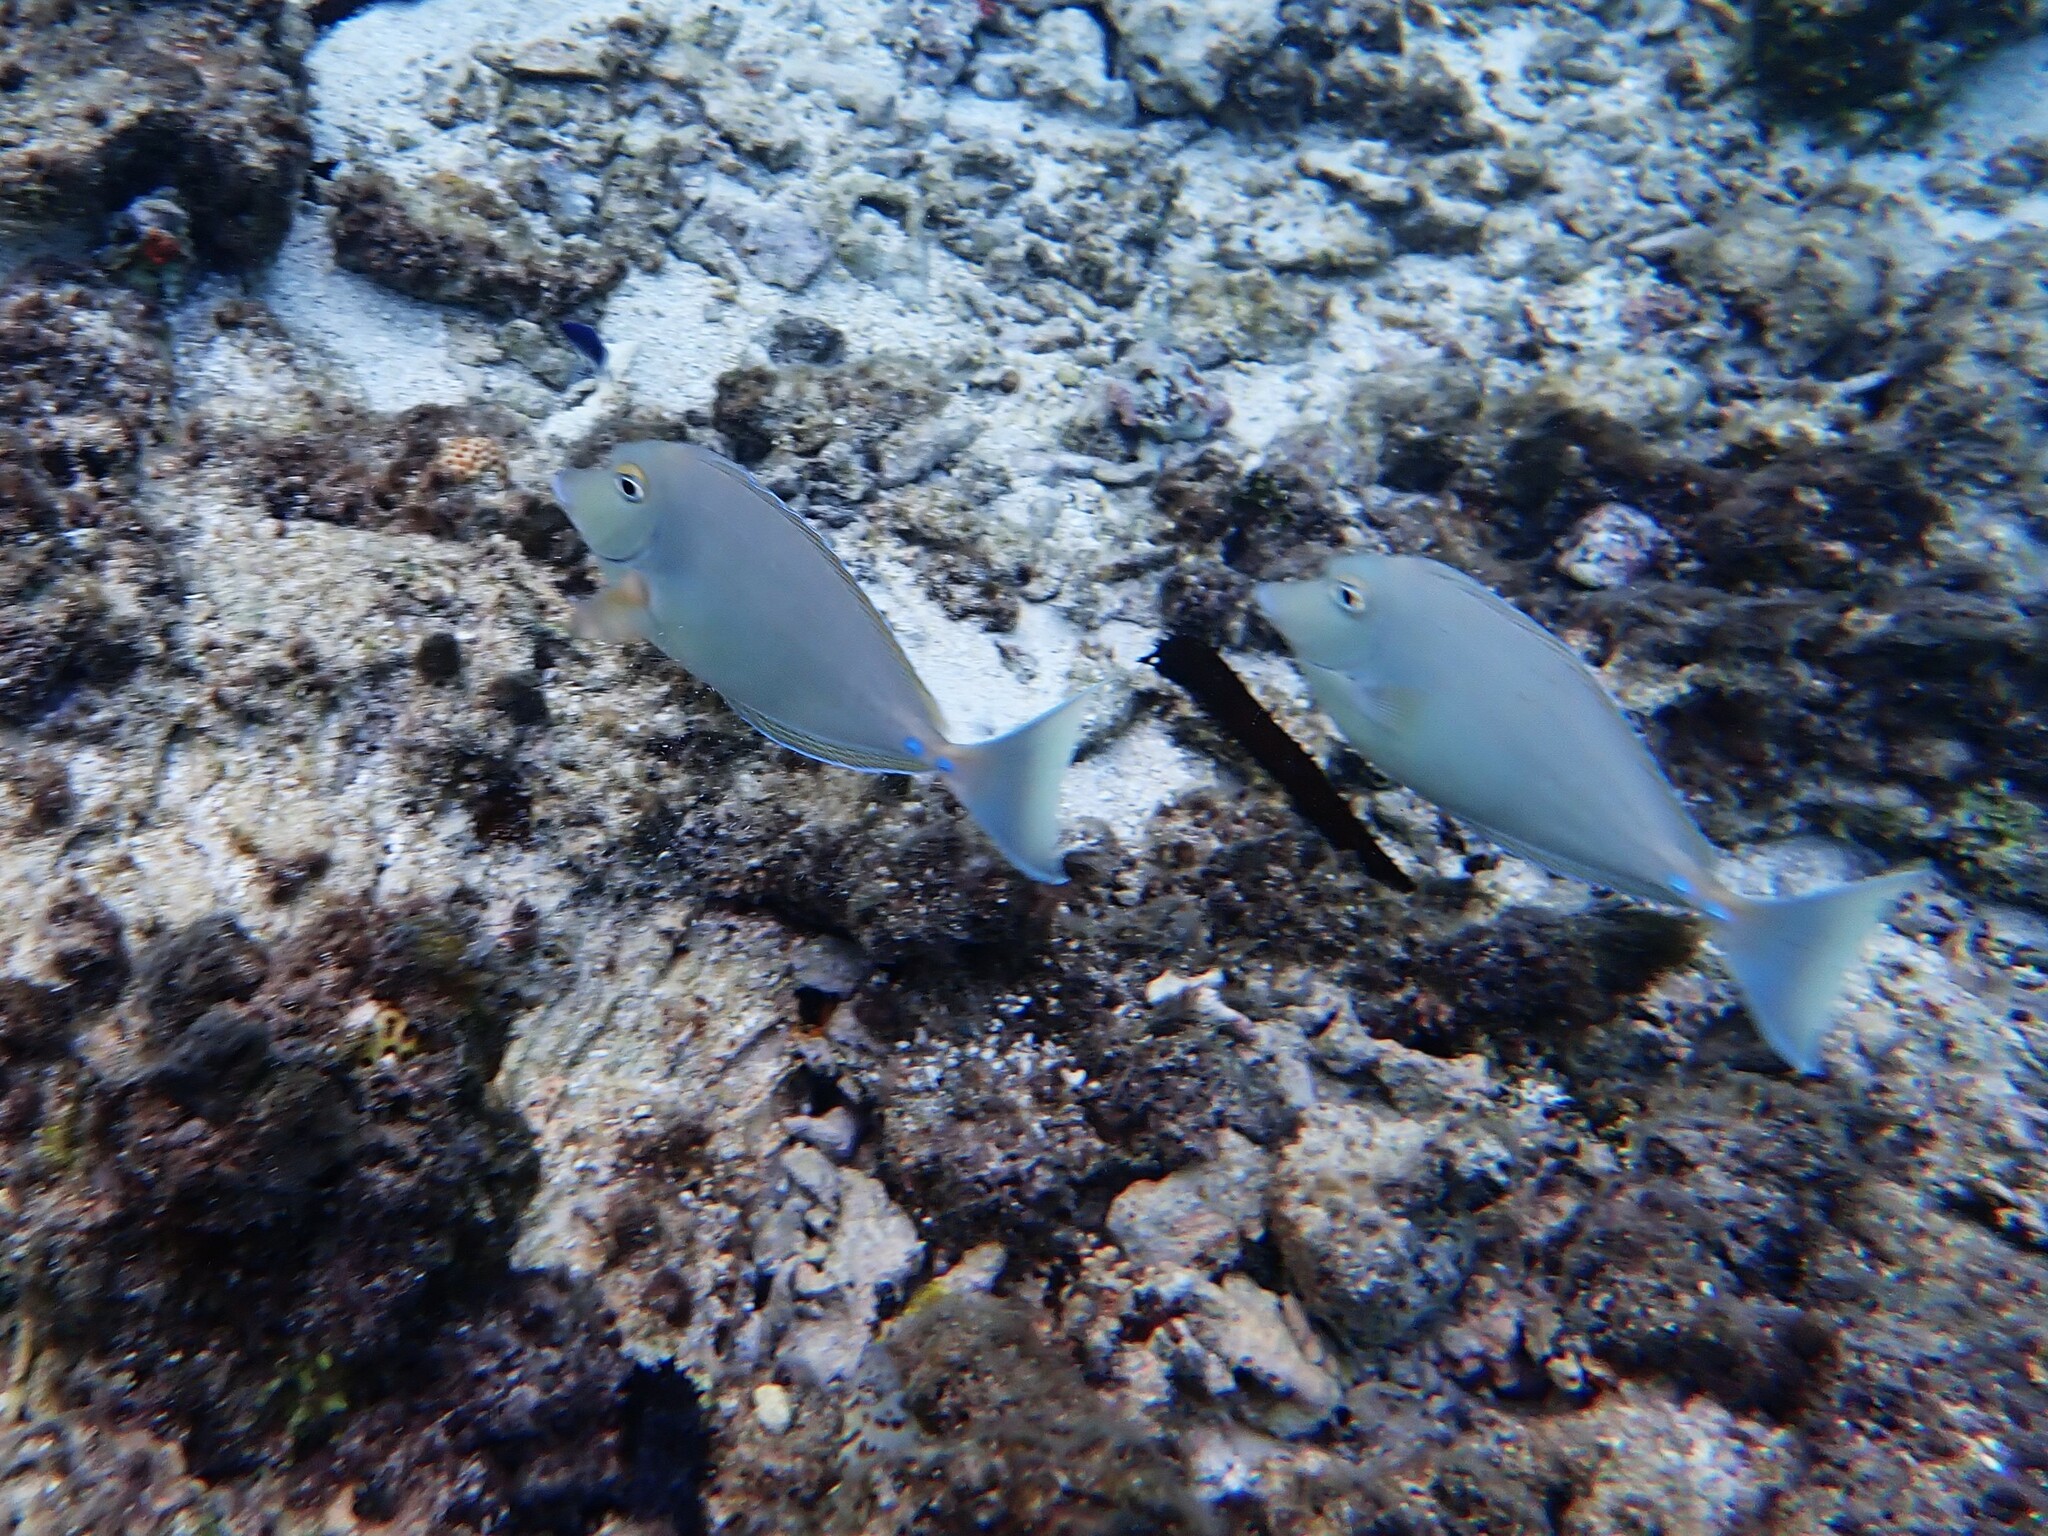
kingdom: Animalia
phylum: Chordata
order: Perciformes
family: Acanthuridae
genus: Naso
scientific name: Naso unicornis
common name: Bluespine unicornfish
